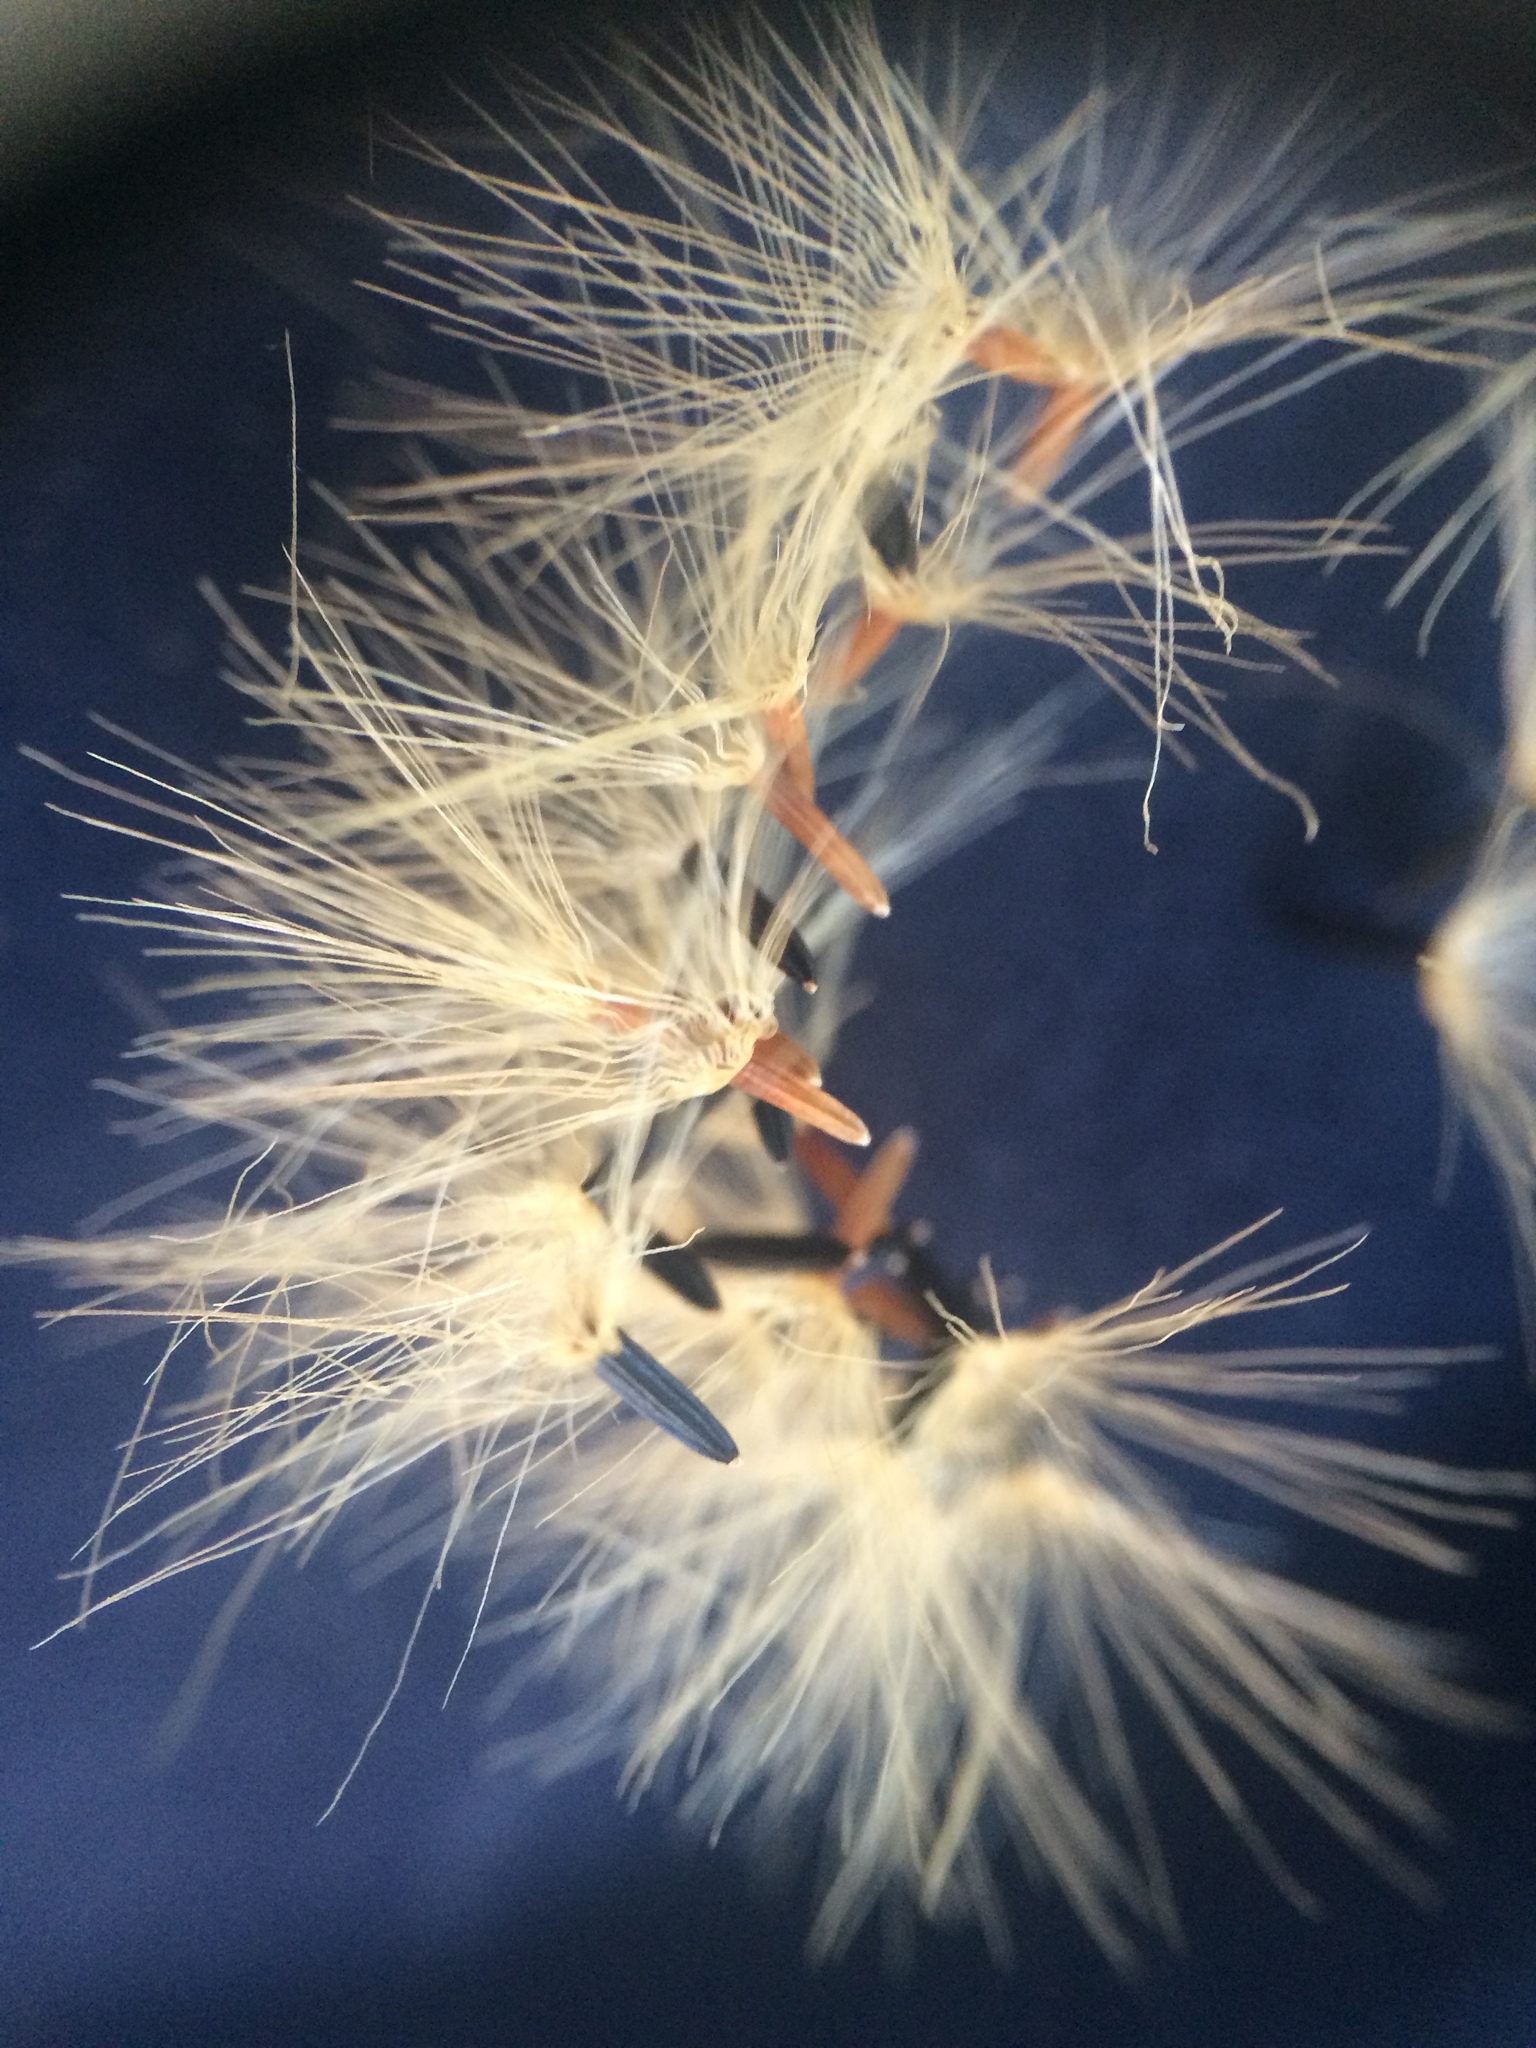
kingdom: Plantae
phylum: Tracheophyta
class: Magnoliopsida
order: Asterales
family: Asteraceae
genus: Hieracium
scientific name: Hieracium umbellatum
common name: Northern hawkweed
